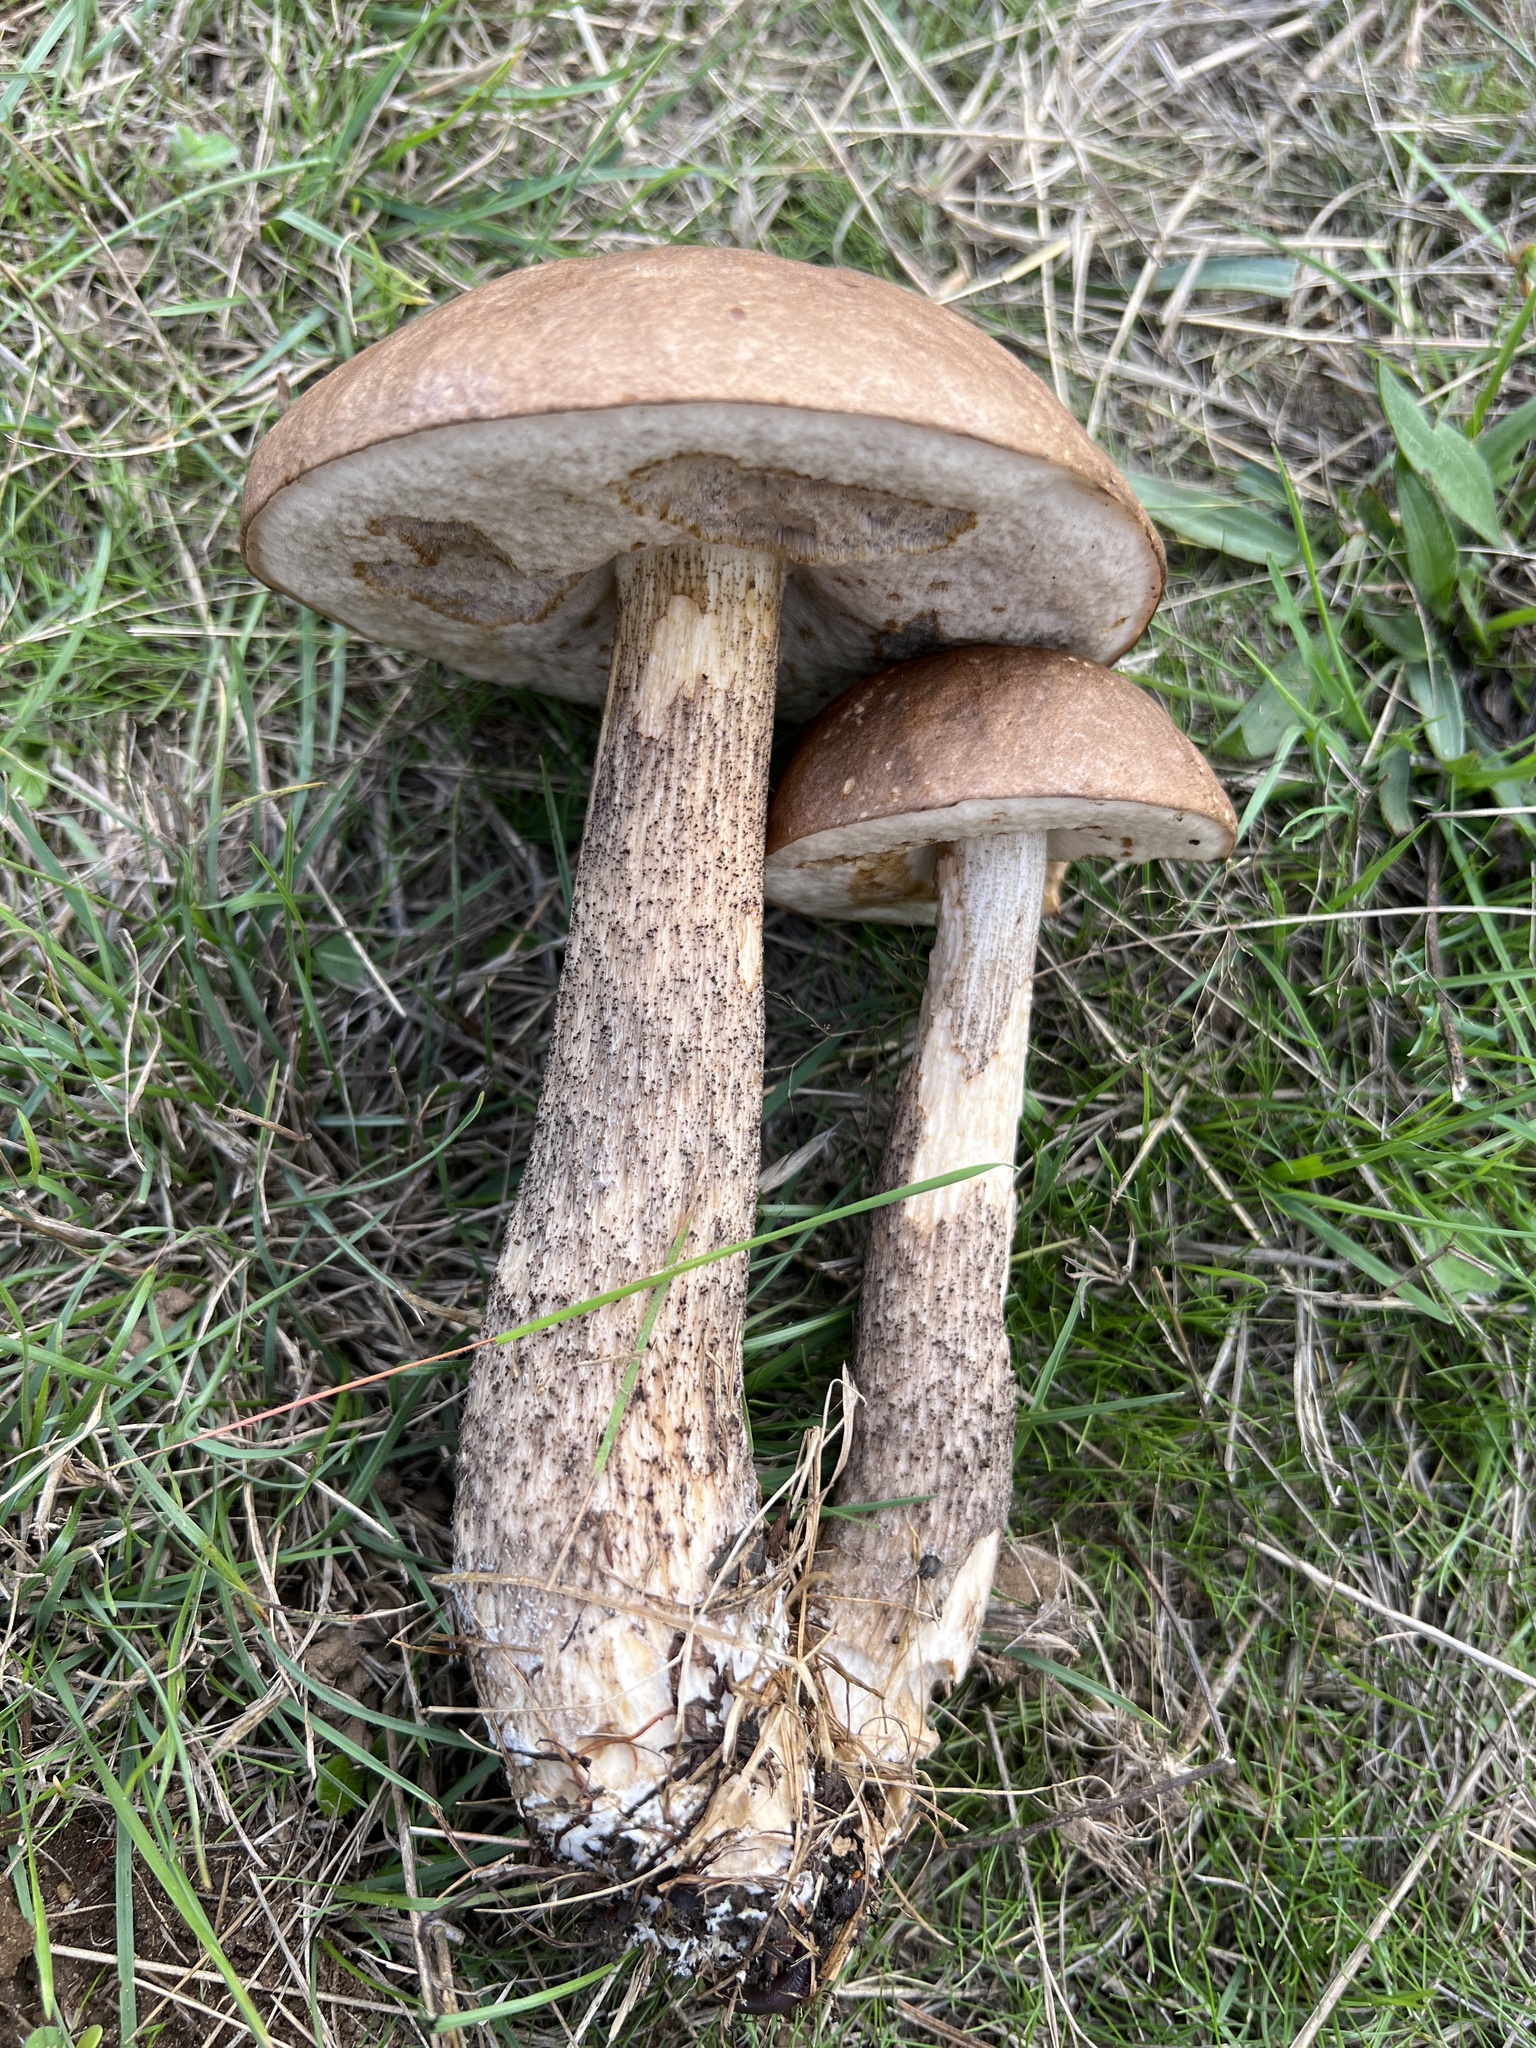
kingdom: Fungi
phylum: Basidiomycota
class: Agaricomycetes
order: Boletales
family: Boletaceae
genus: Leccinum
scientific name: Leccinum scabrum
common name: Blushing bolete
